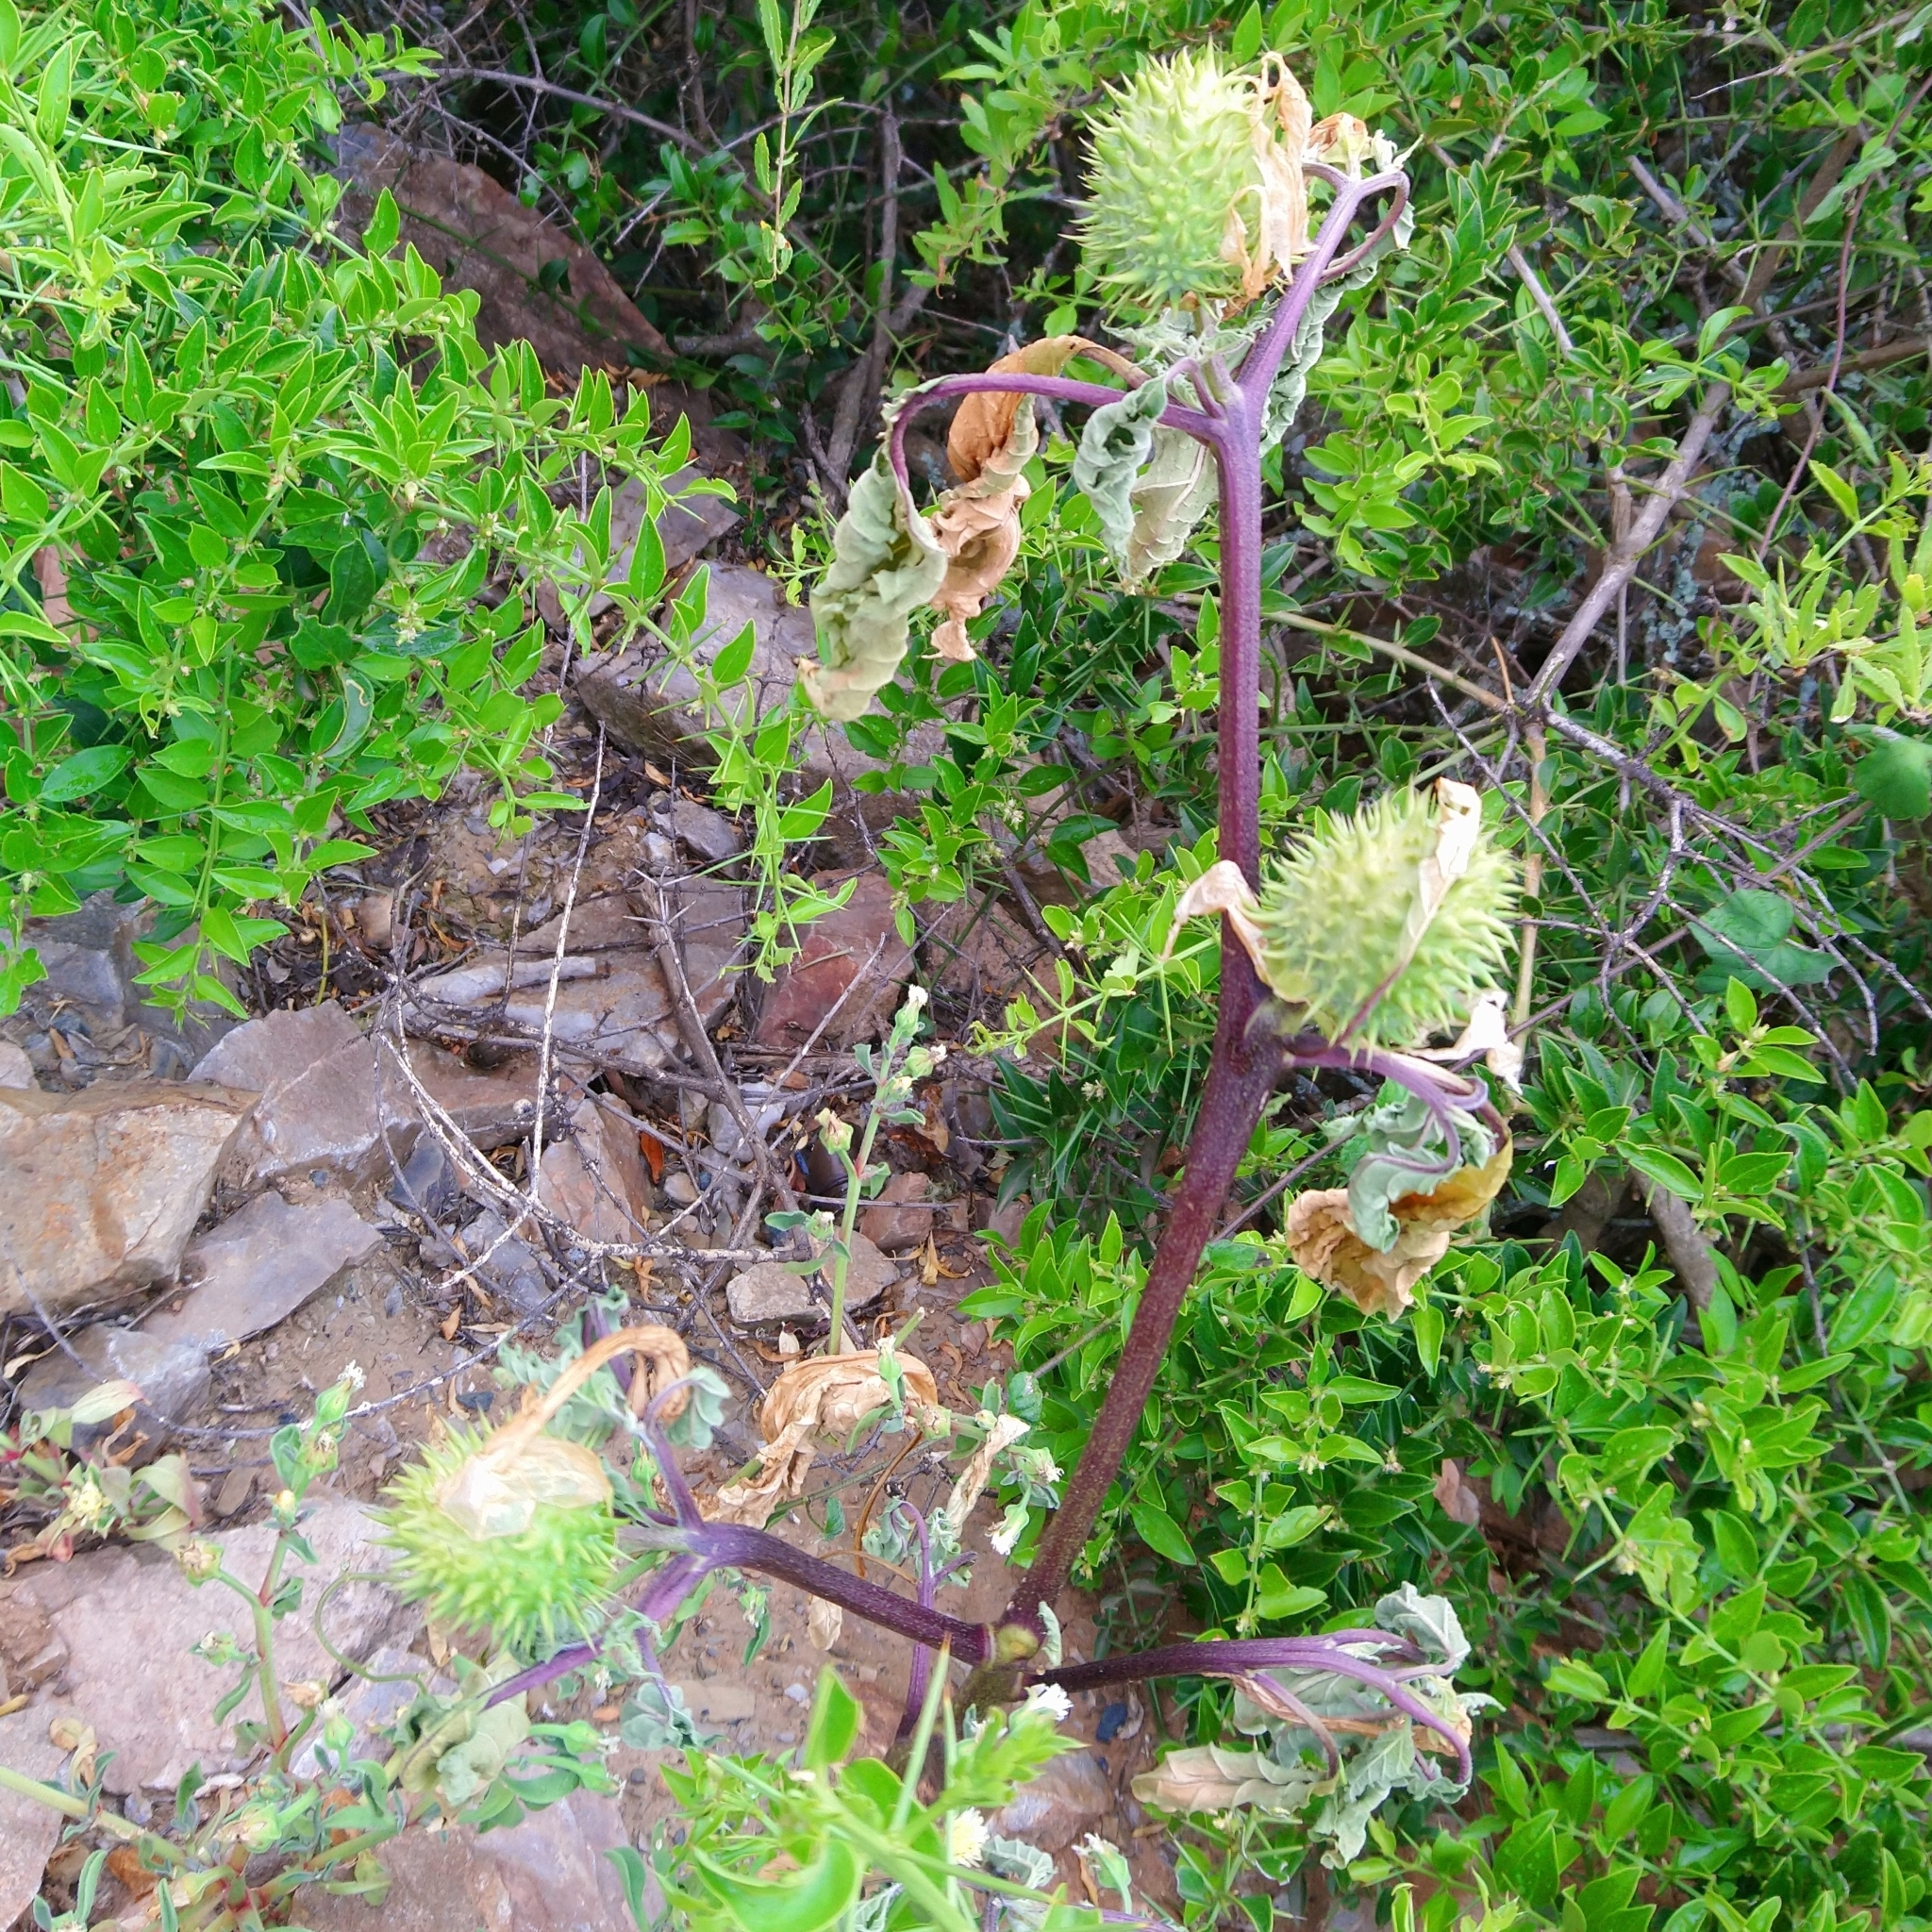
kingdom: Plantae
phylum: Tracheophyta
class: Magnoliopsida
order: Solanales
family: Solanaceae
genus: Datura
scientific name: Datura stramonium
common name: Thorn-apple
